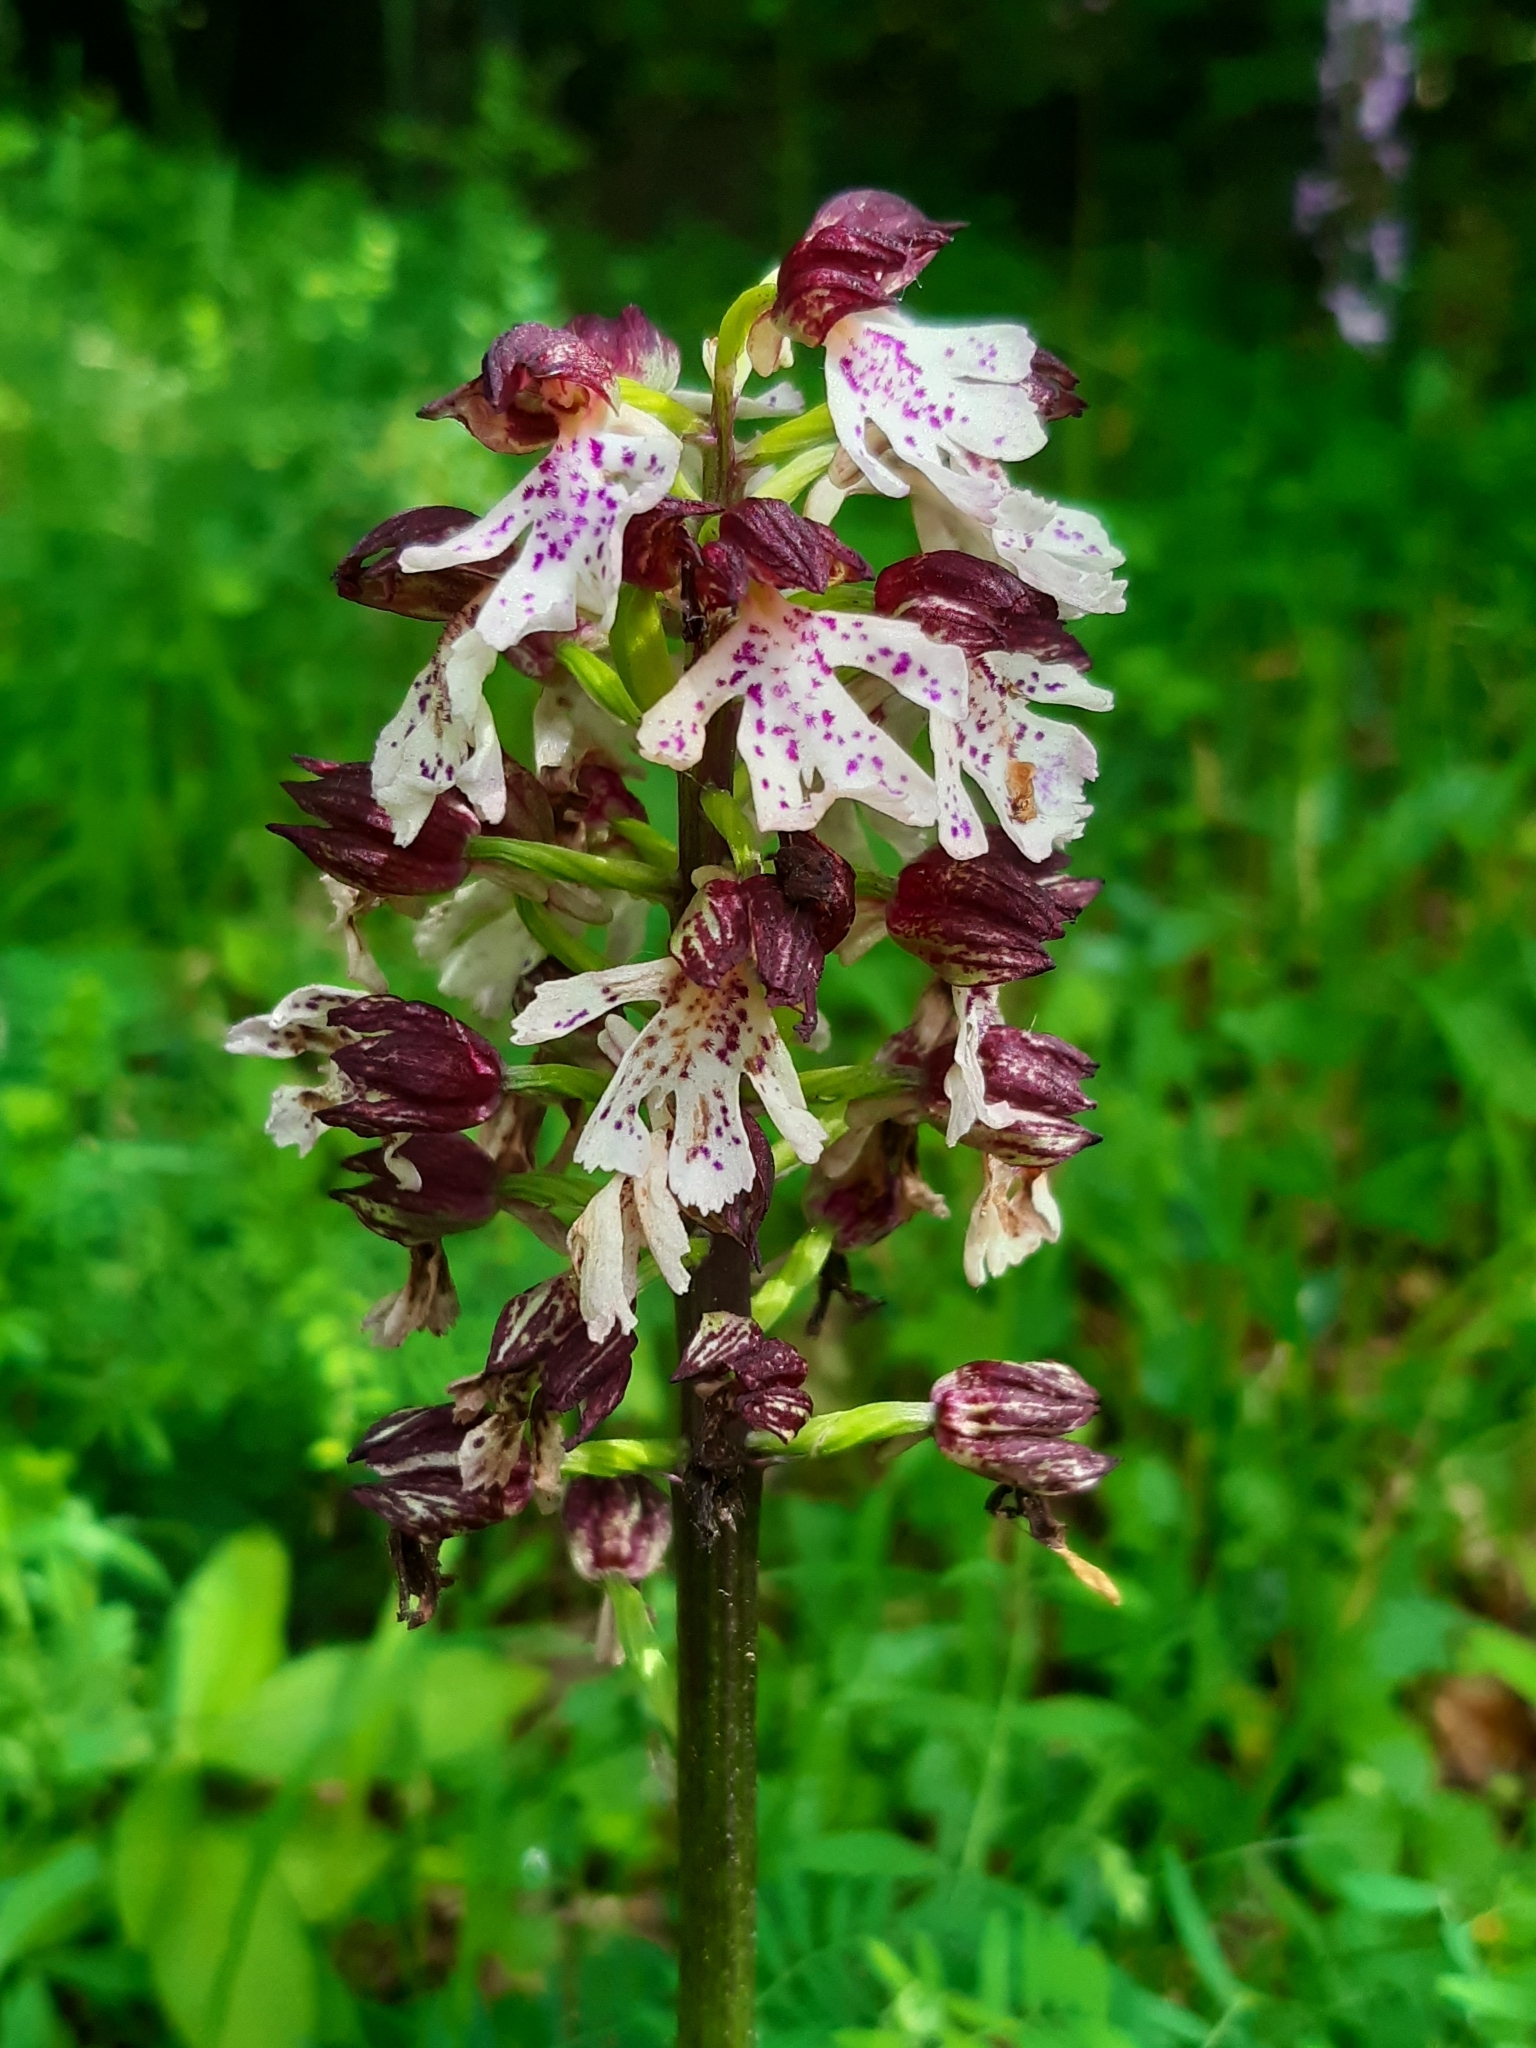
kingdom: Plantae
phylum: Tracheophyta
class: Liliopsida
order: Asparagales
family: Orchidaceae
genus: Orchis
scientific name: Orchis purpurea
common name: Lady orchid
